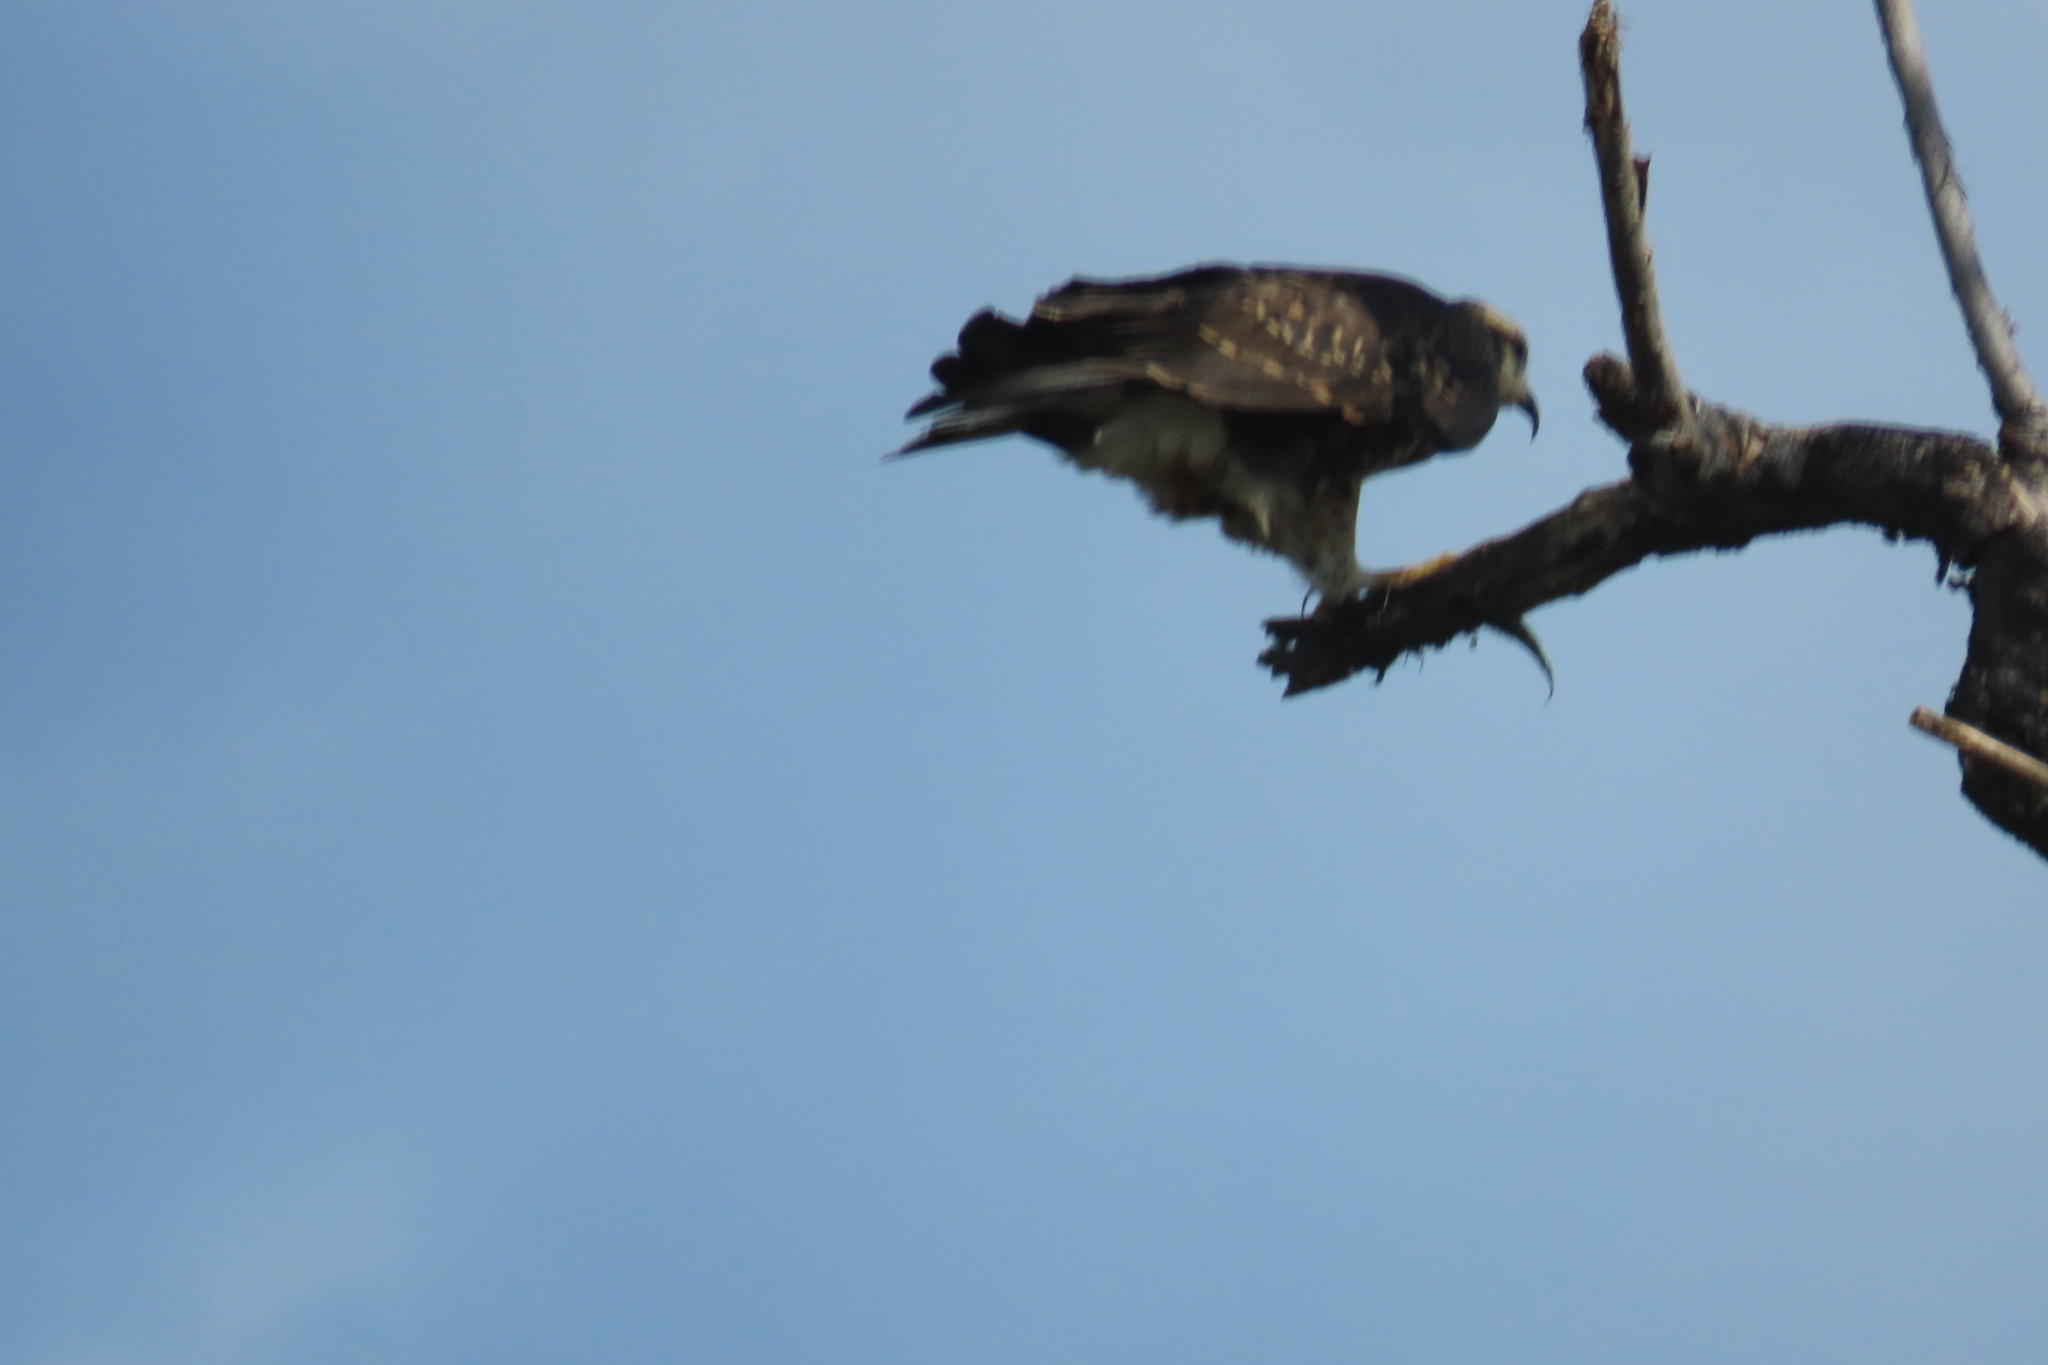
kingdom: Animalia
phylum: Chordata
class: Aves
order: Accipitriformes
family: Accipitridae
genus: Rostrhamus
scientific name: Rostrhamus sociabilis
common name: Snail kite
